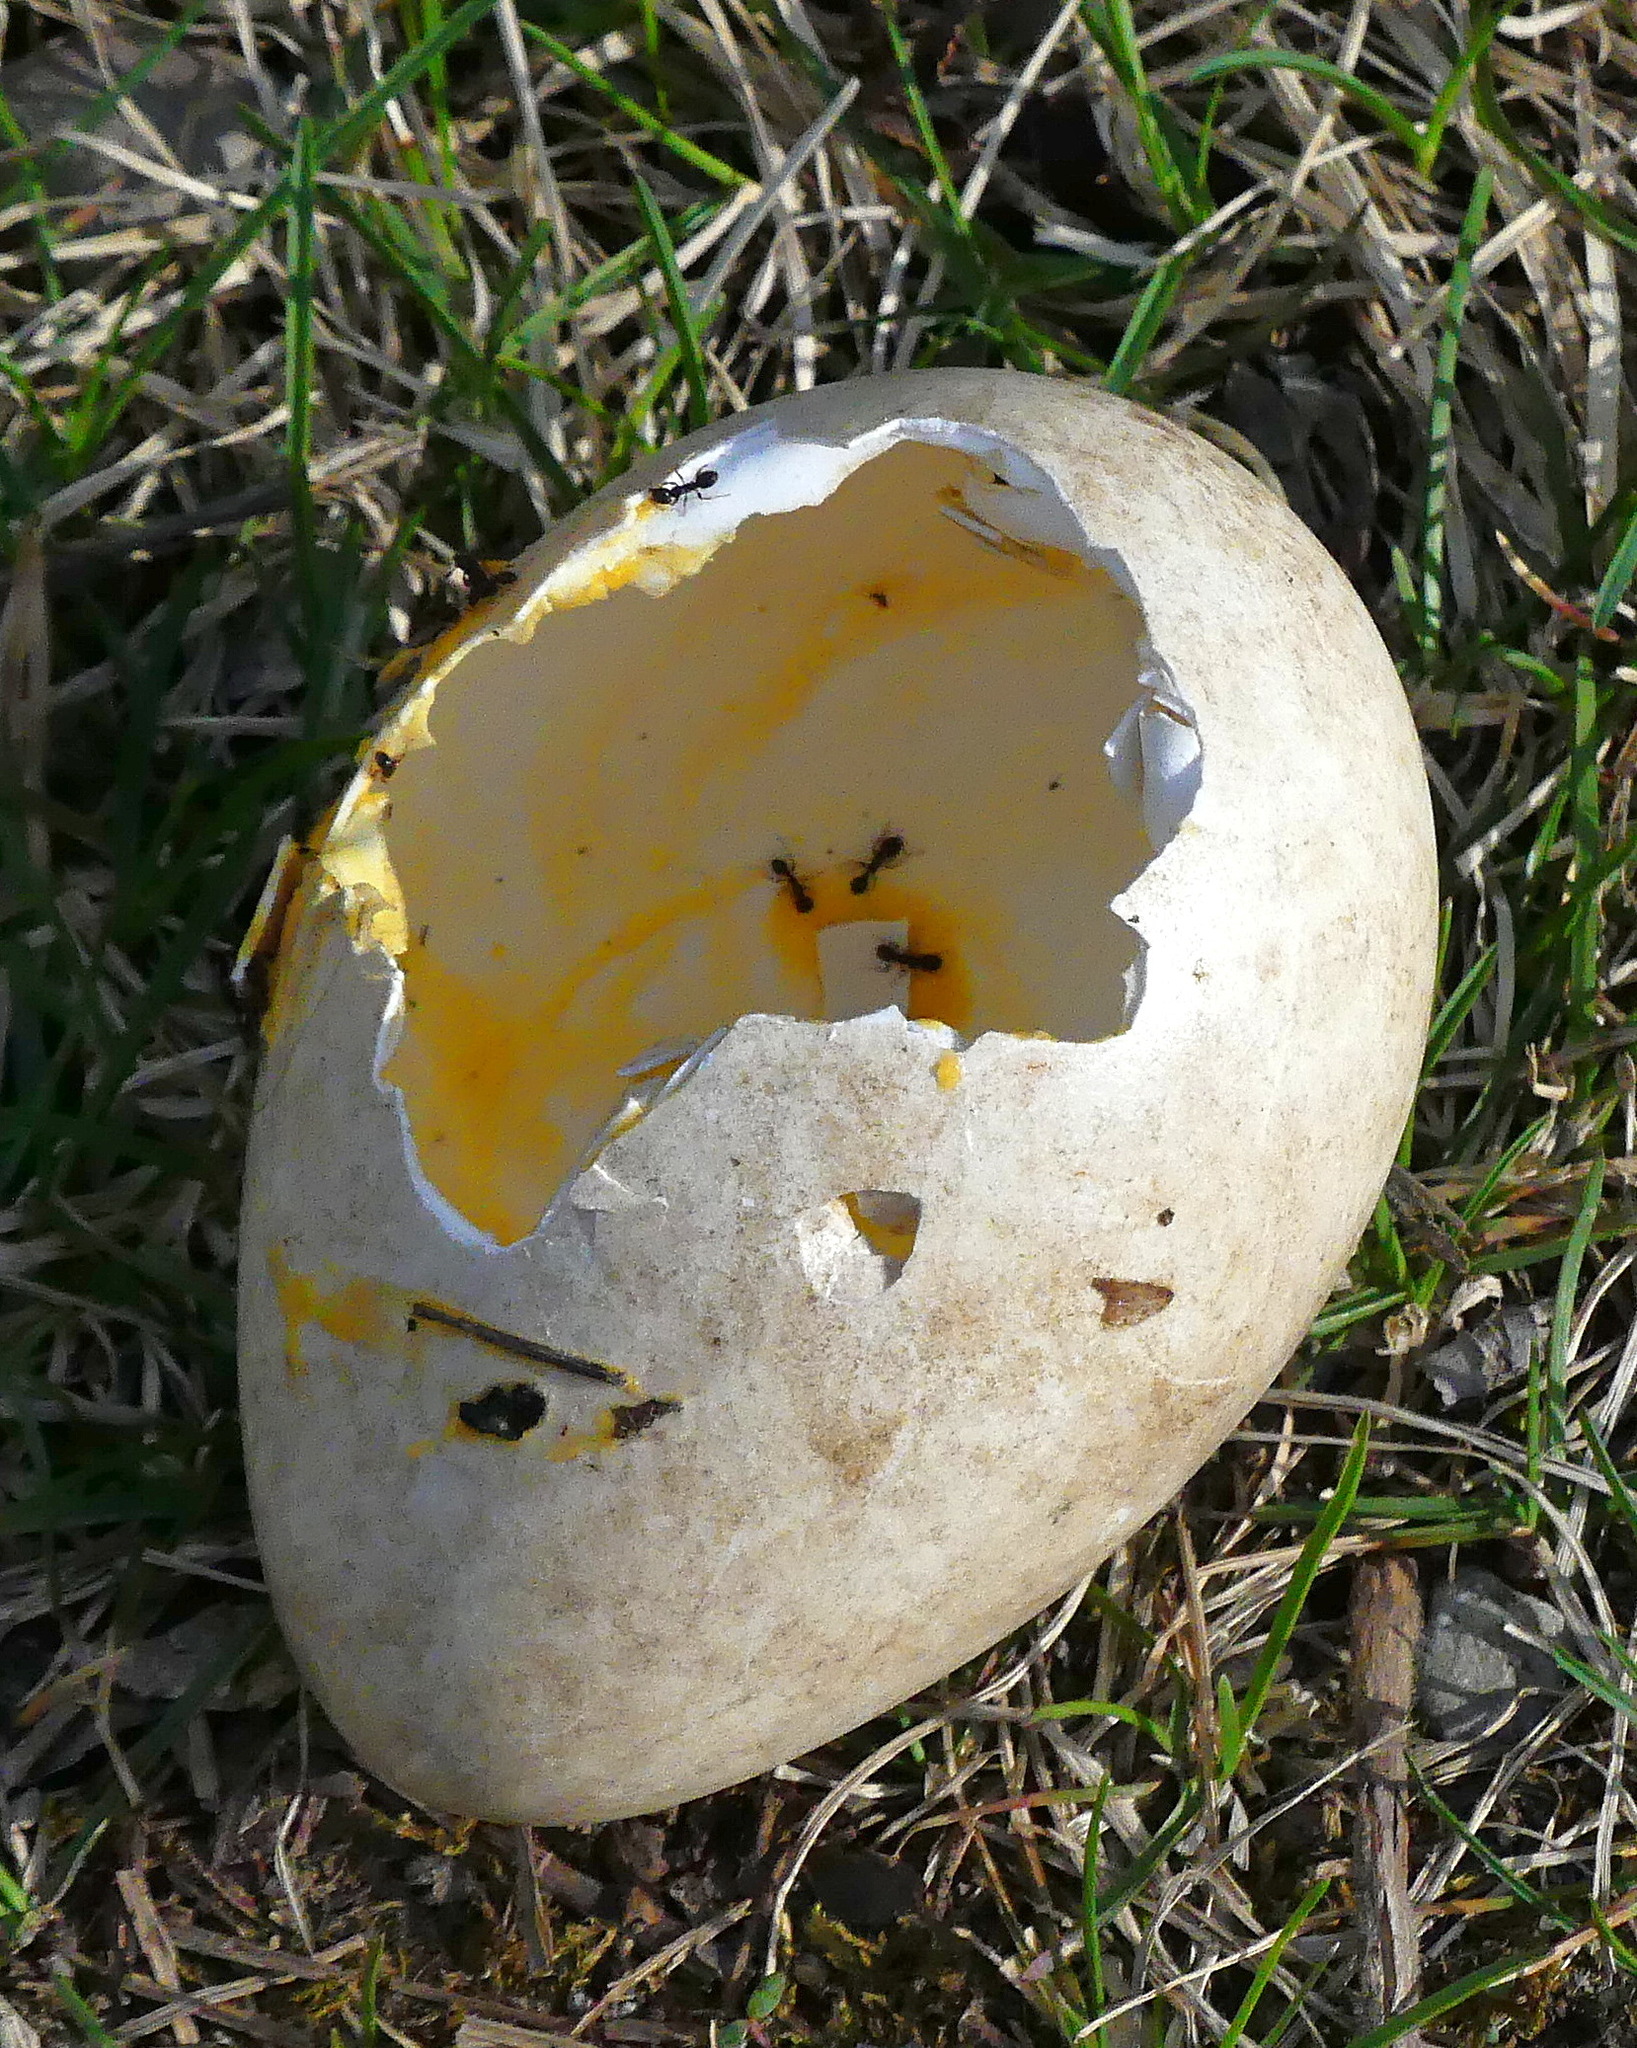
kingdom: Animalia
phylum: Chordata
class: Aves
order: Anseriformes
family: Anatidae
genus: Branta
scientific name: Branta canadensis
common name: Canada goose
